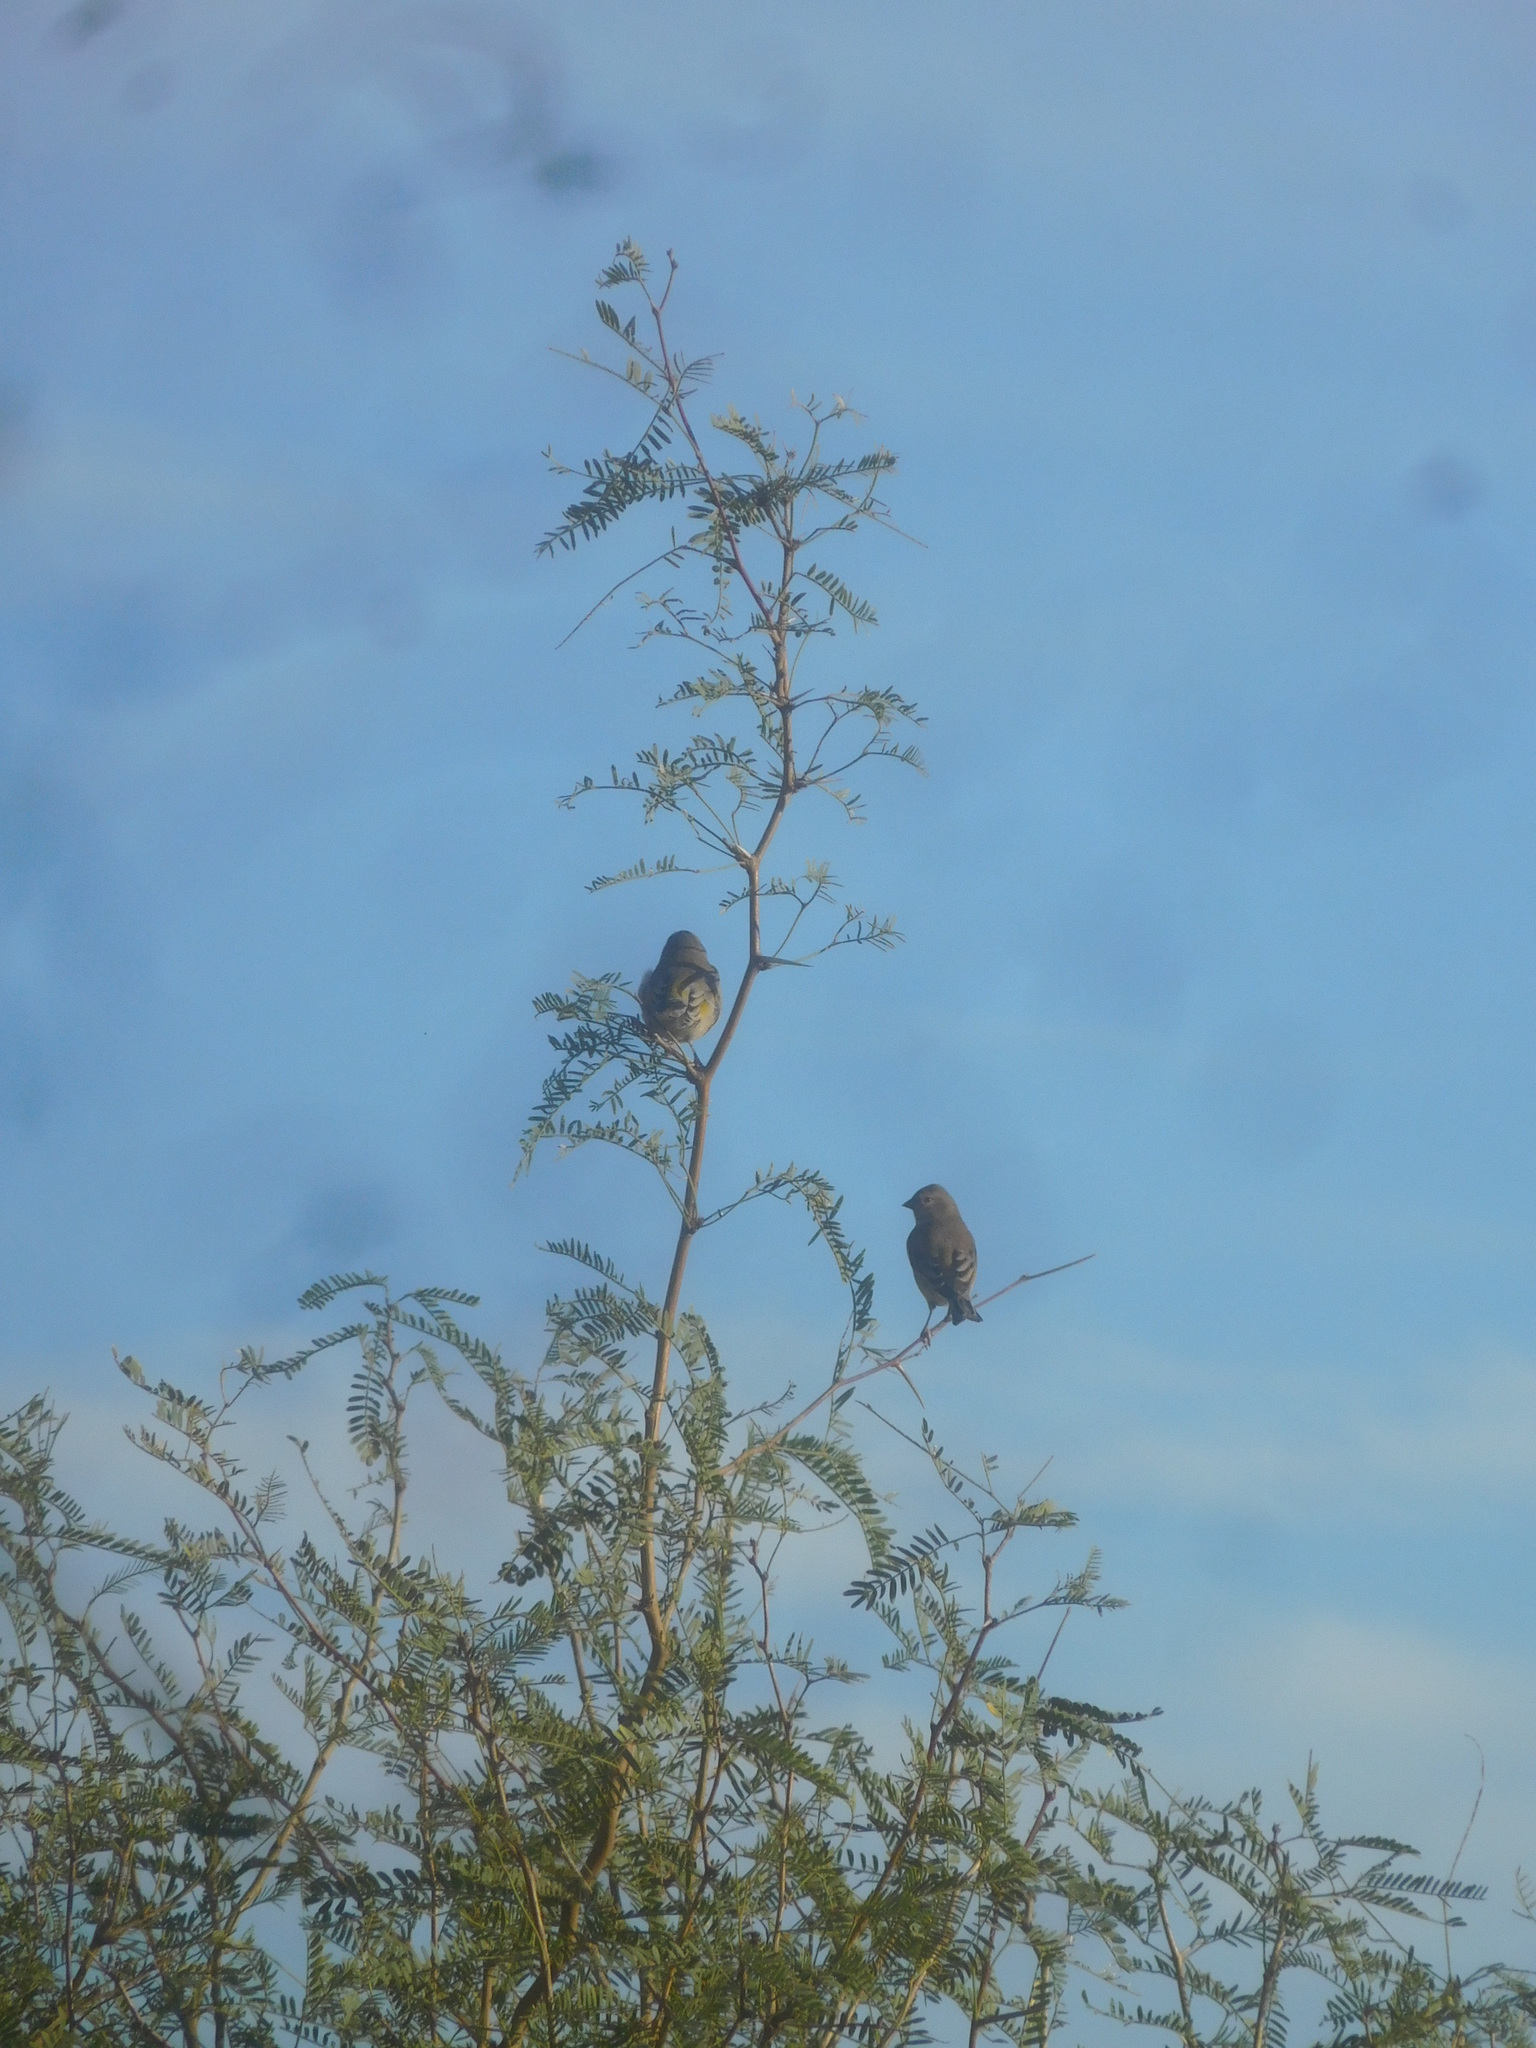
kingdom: Animalia
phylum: Chordata
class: Aves
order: Passeriformes
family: Fringillidae
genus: Spinus
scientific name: Spinus lawrencei
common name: Lawrence's goldfinch
